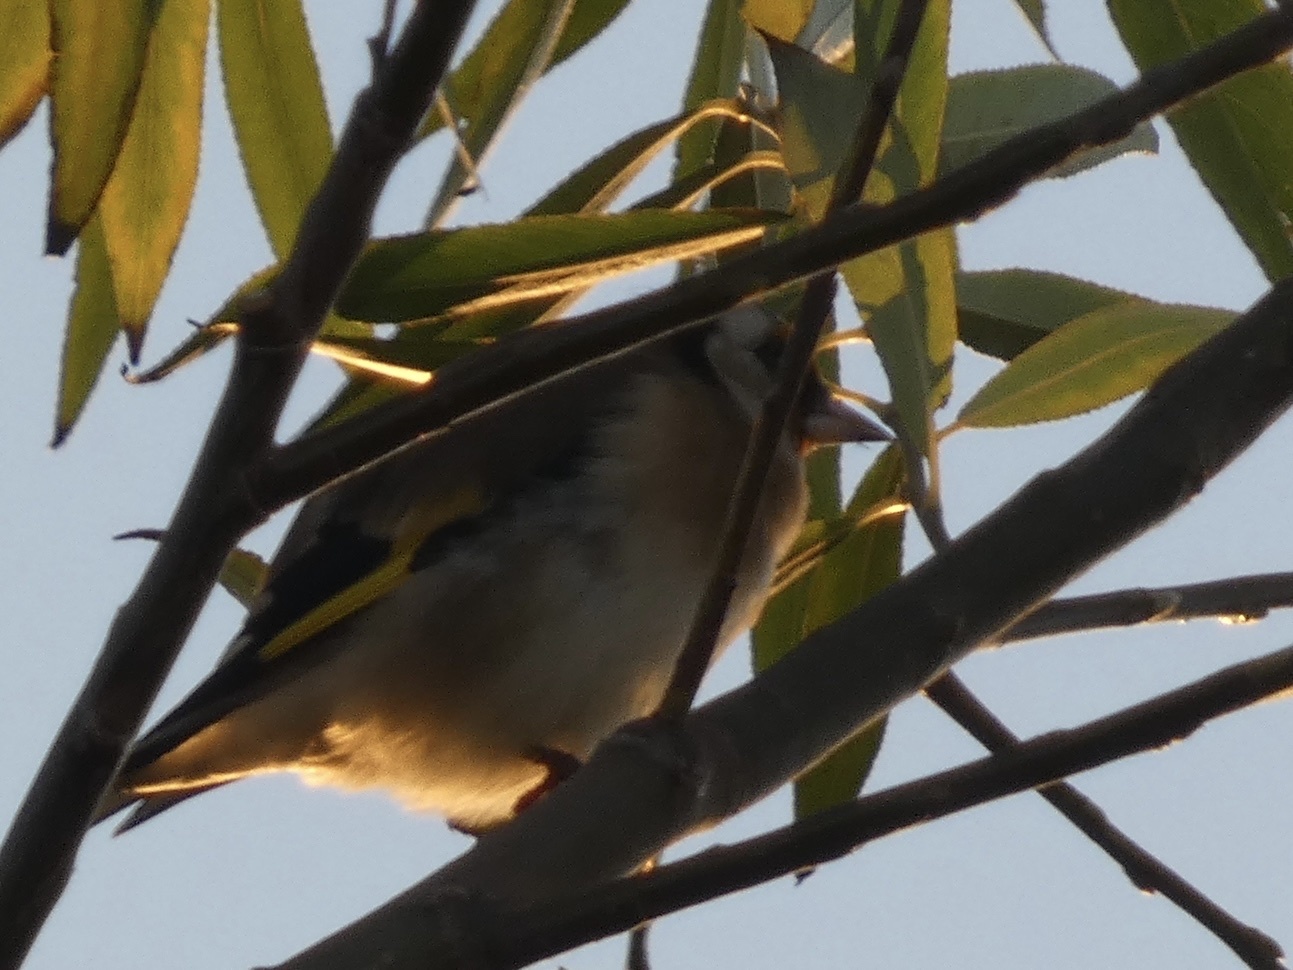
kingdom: Animalia
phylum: Chordata
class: Aves
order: Passeriformes
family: Fringillidae
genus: Carduelis
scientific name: Carduelis carduelis
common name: European goldfinch
